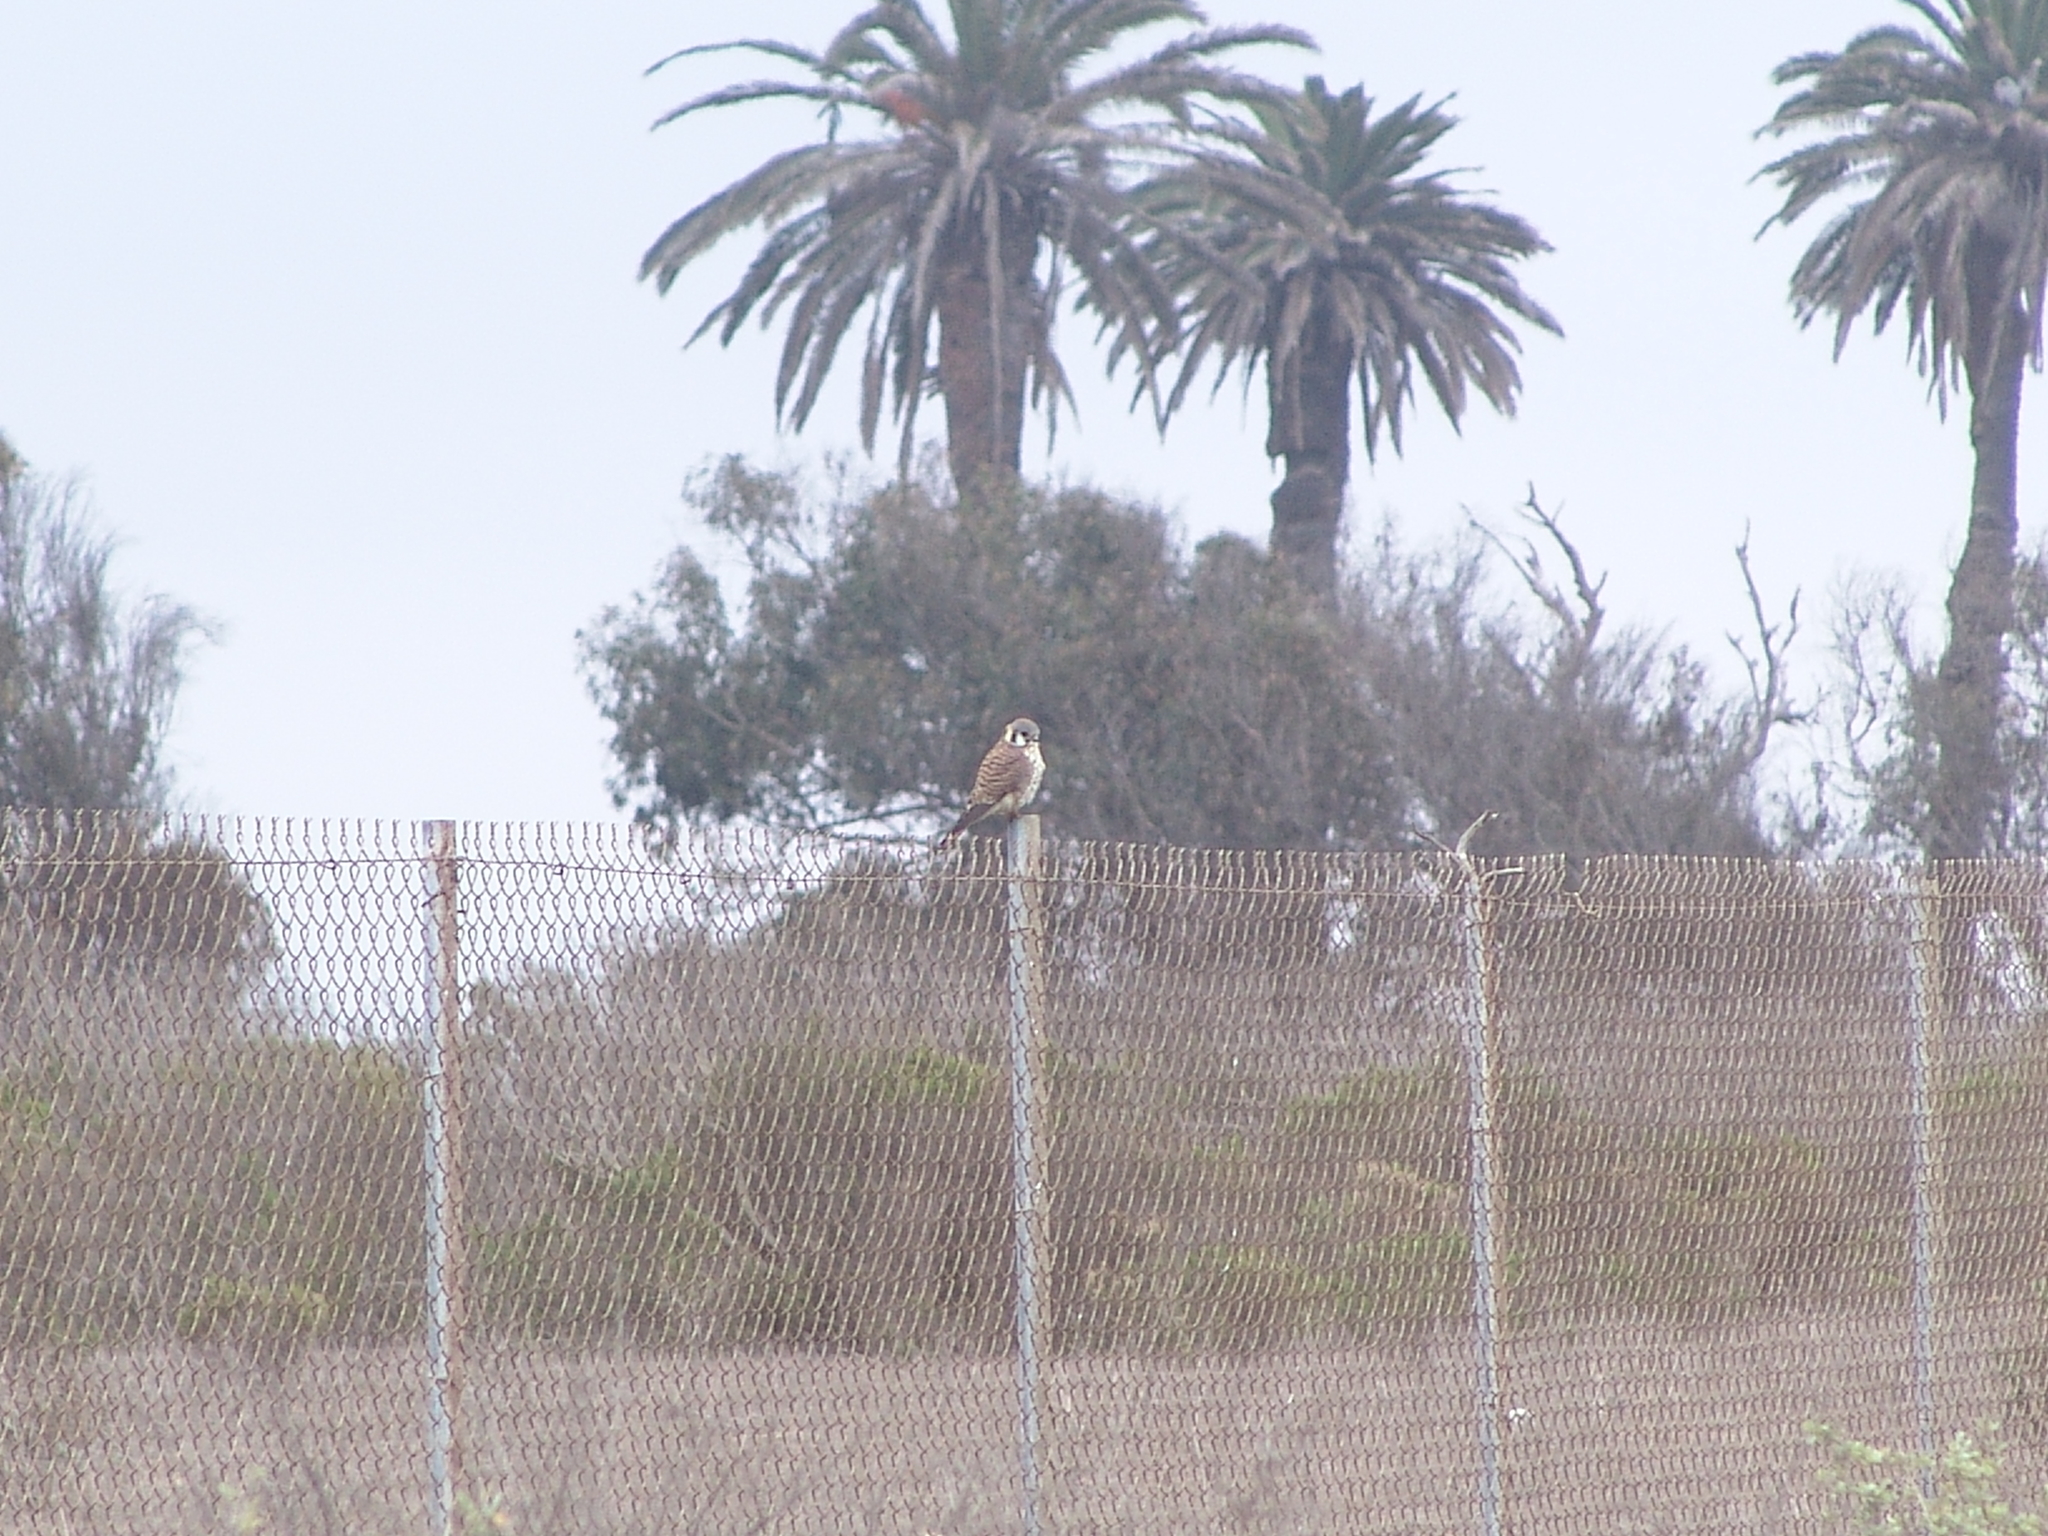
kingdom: Animalia
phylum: Chordata
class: Aves
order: Falconiformes
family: Falconidae
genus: Falco
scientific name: Falco sparverius
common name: American kestrel
